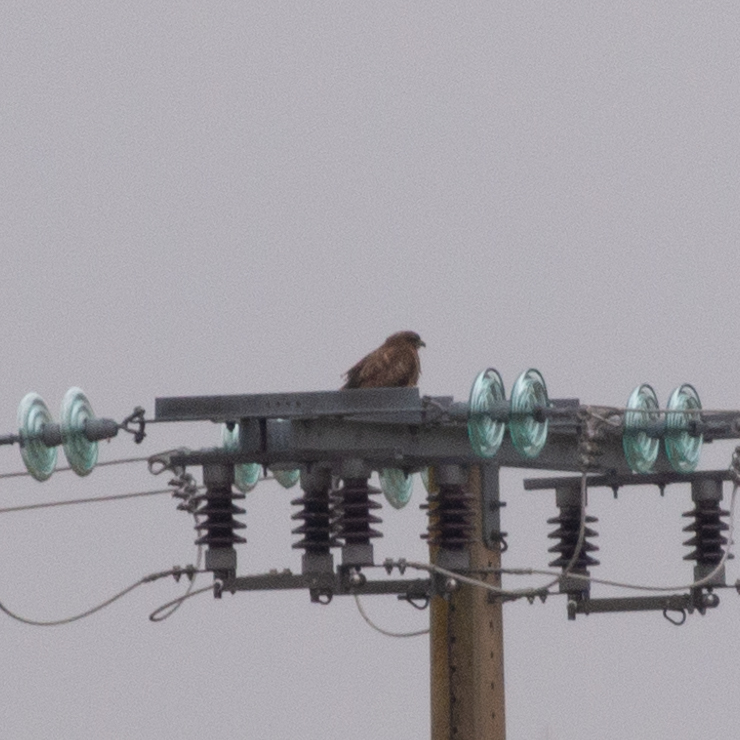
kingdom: Animalia
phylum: Chordata
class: Aves
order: Accipitriformes
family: Accipitridae
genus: Buteo
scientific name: Buteo buteo
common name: Common buzzard
